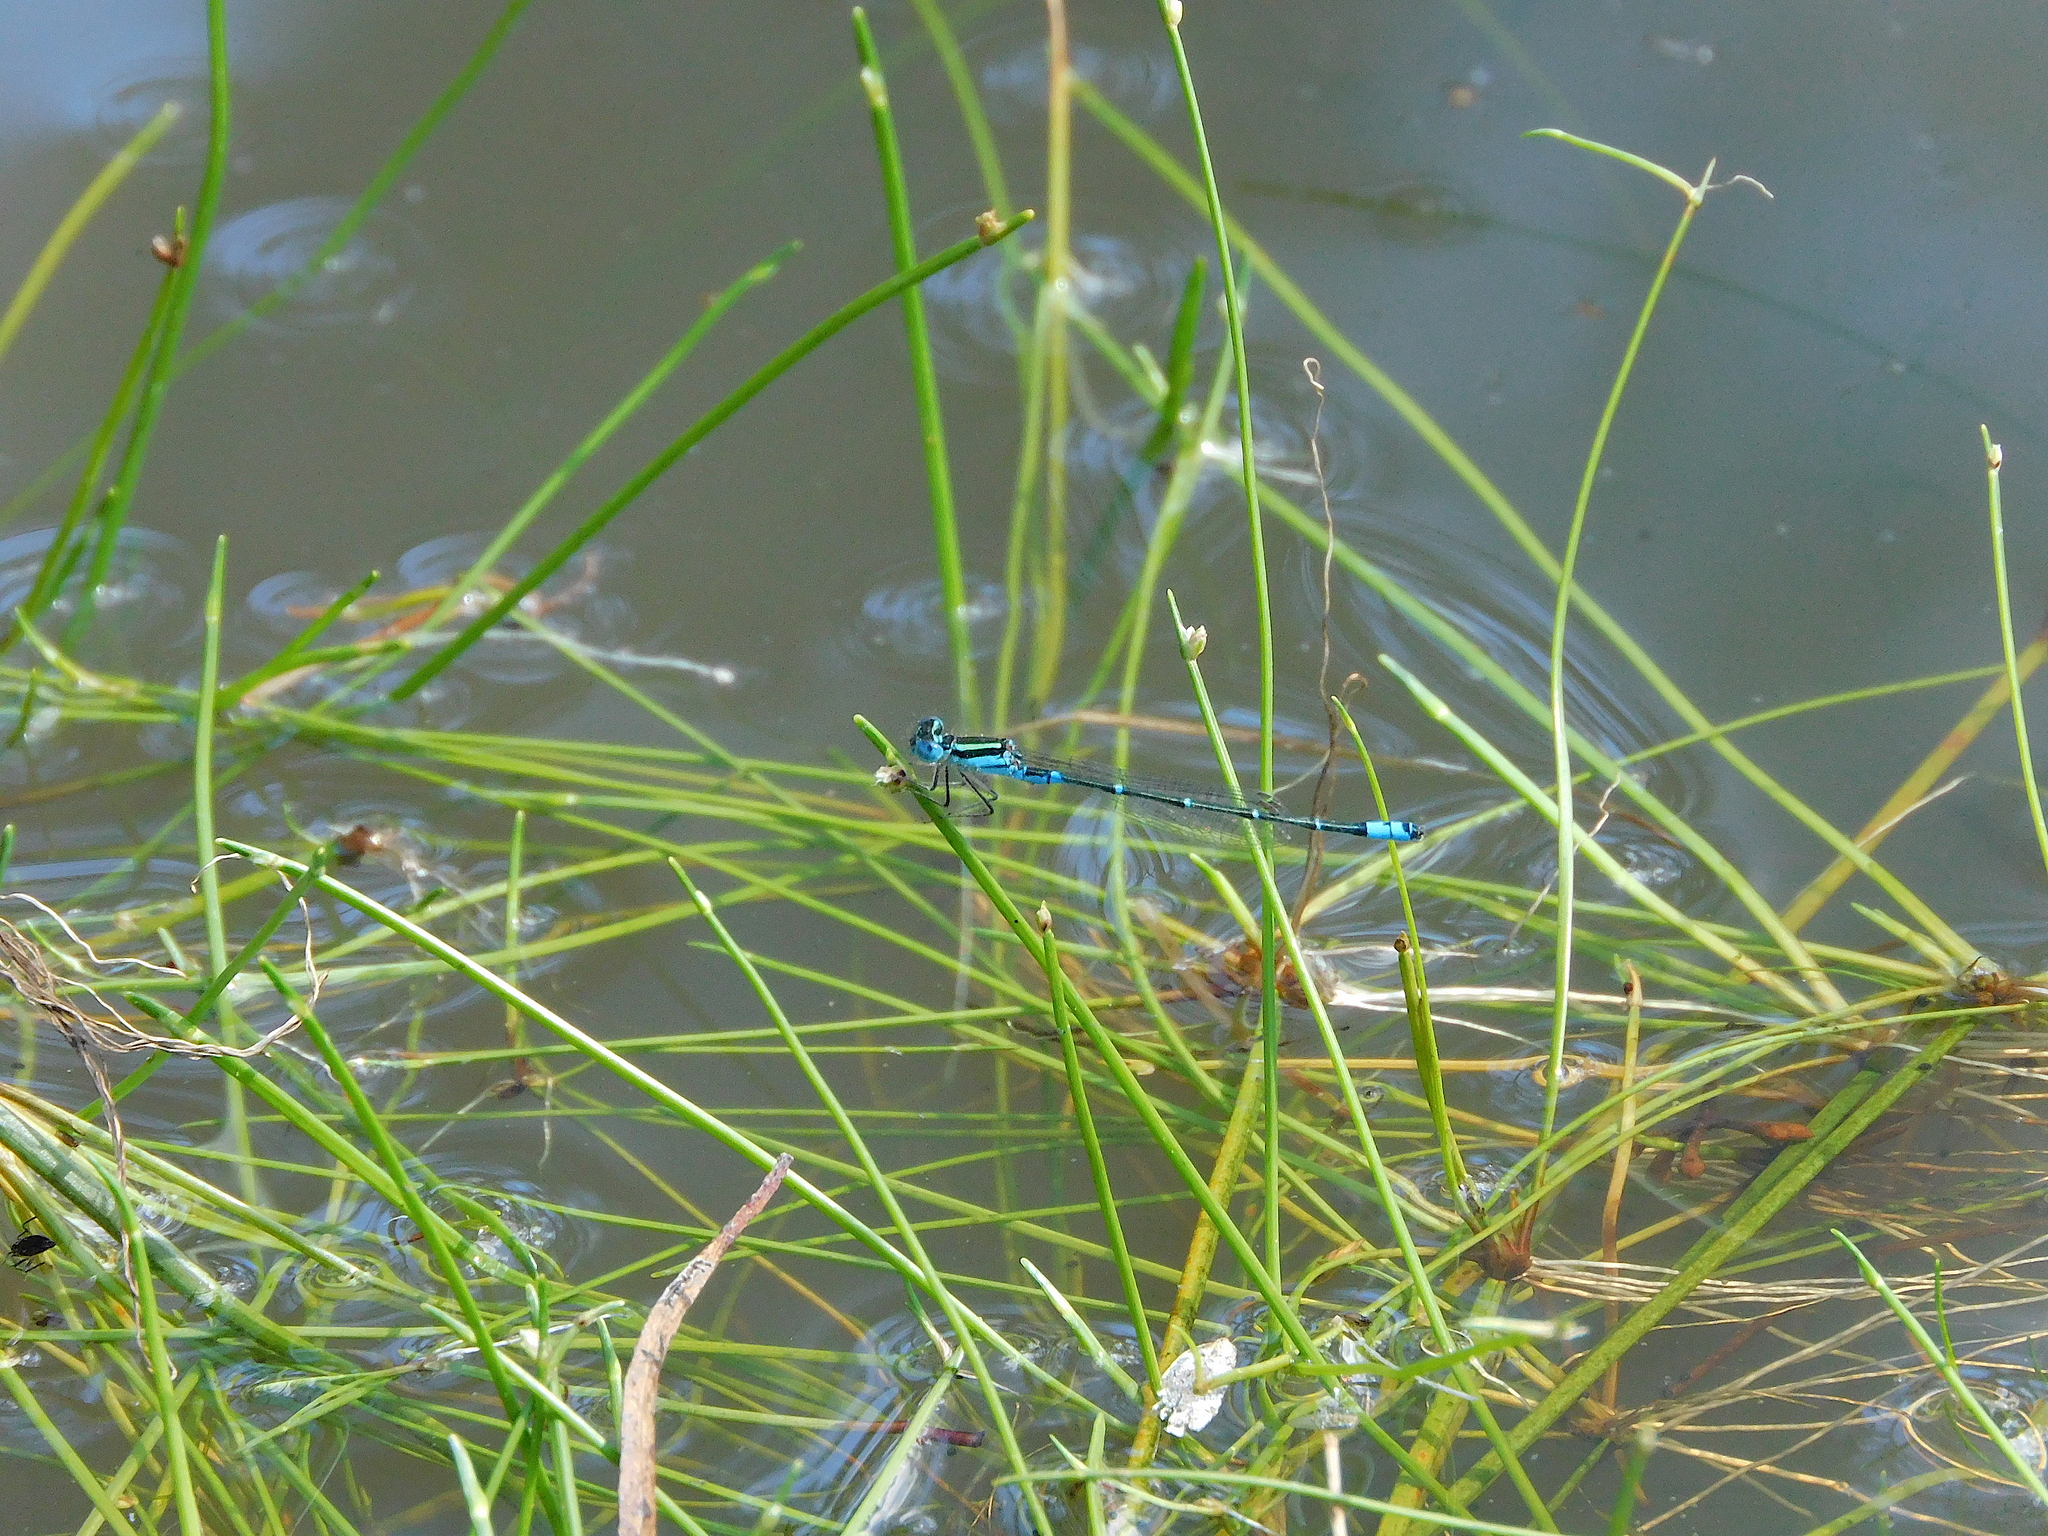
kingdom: Animalia
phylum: Arthropoda
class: Insecta
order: Odonata
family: Coenagrionidae
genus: Austroagrion
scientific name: Austroagrion watsoni
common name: Eastern billabongfly
